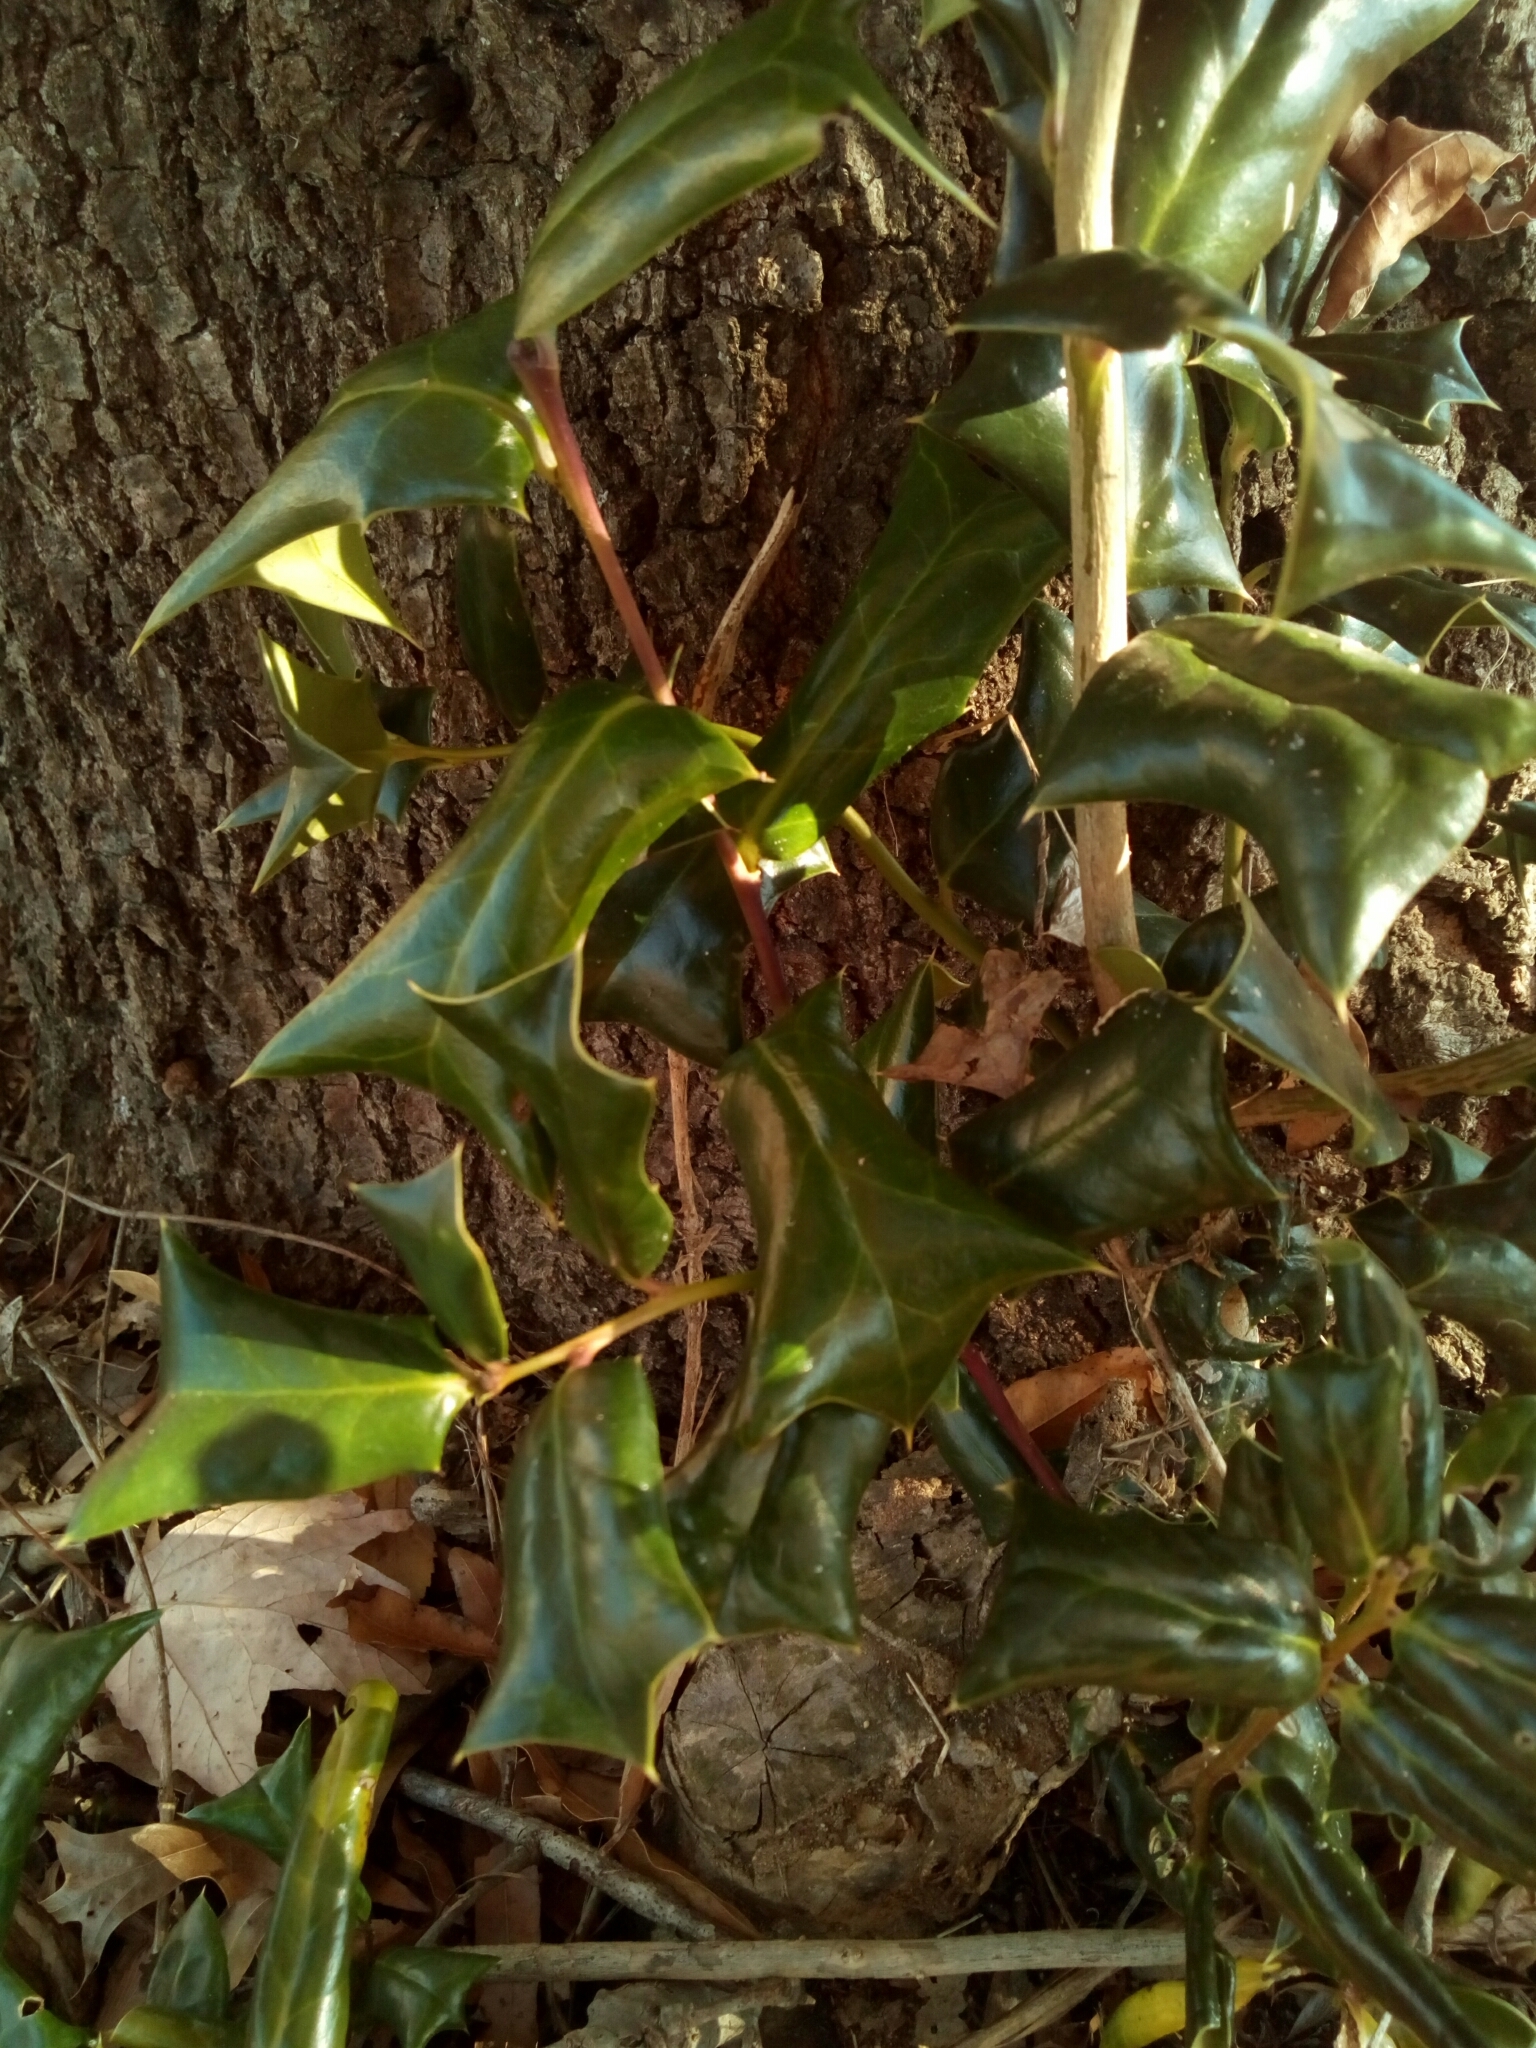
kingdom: Plantae
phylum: Tracheophyta
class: Magnoliopsida
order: Aquifoliales
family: Aquifoliaceae
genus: Ilex
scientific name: Ilex cornuta
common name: Chinese holly
